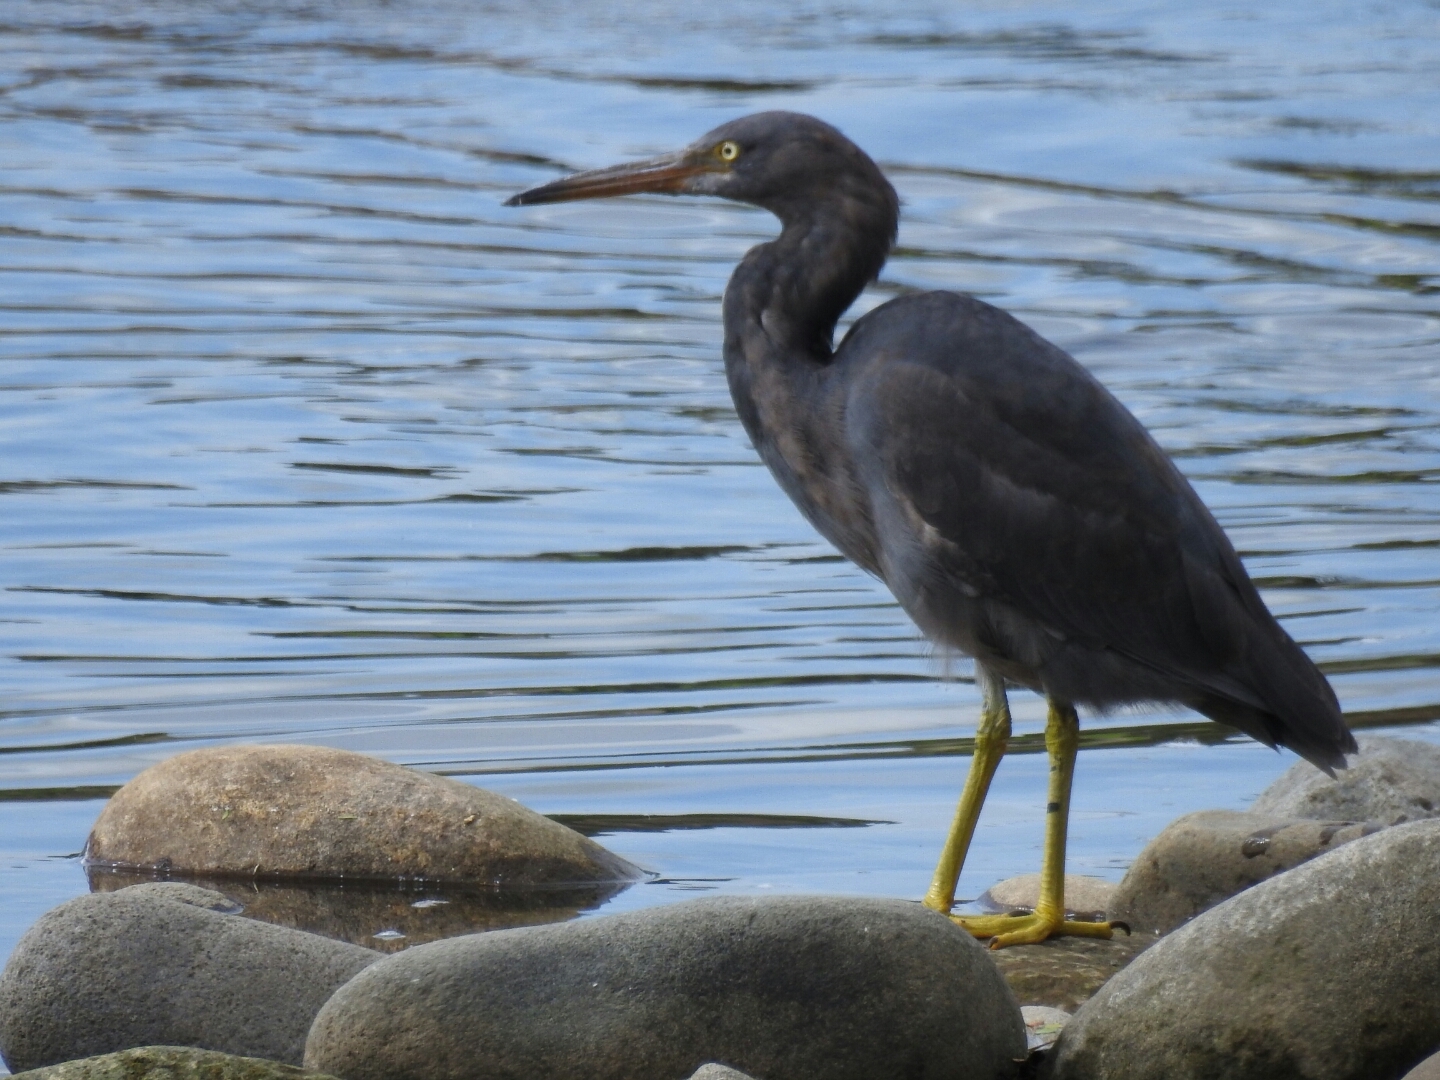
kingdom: Animalia
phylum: Chordata
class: Aves
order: Pelecaniformes
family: Ardeidae
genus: Egretta
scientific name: Egretta sacra
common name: Pacific reef heron
